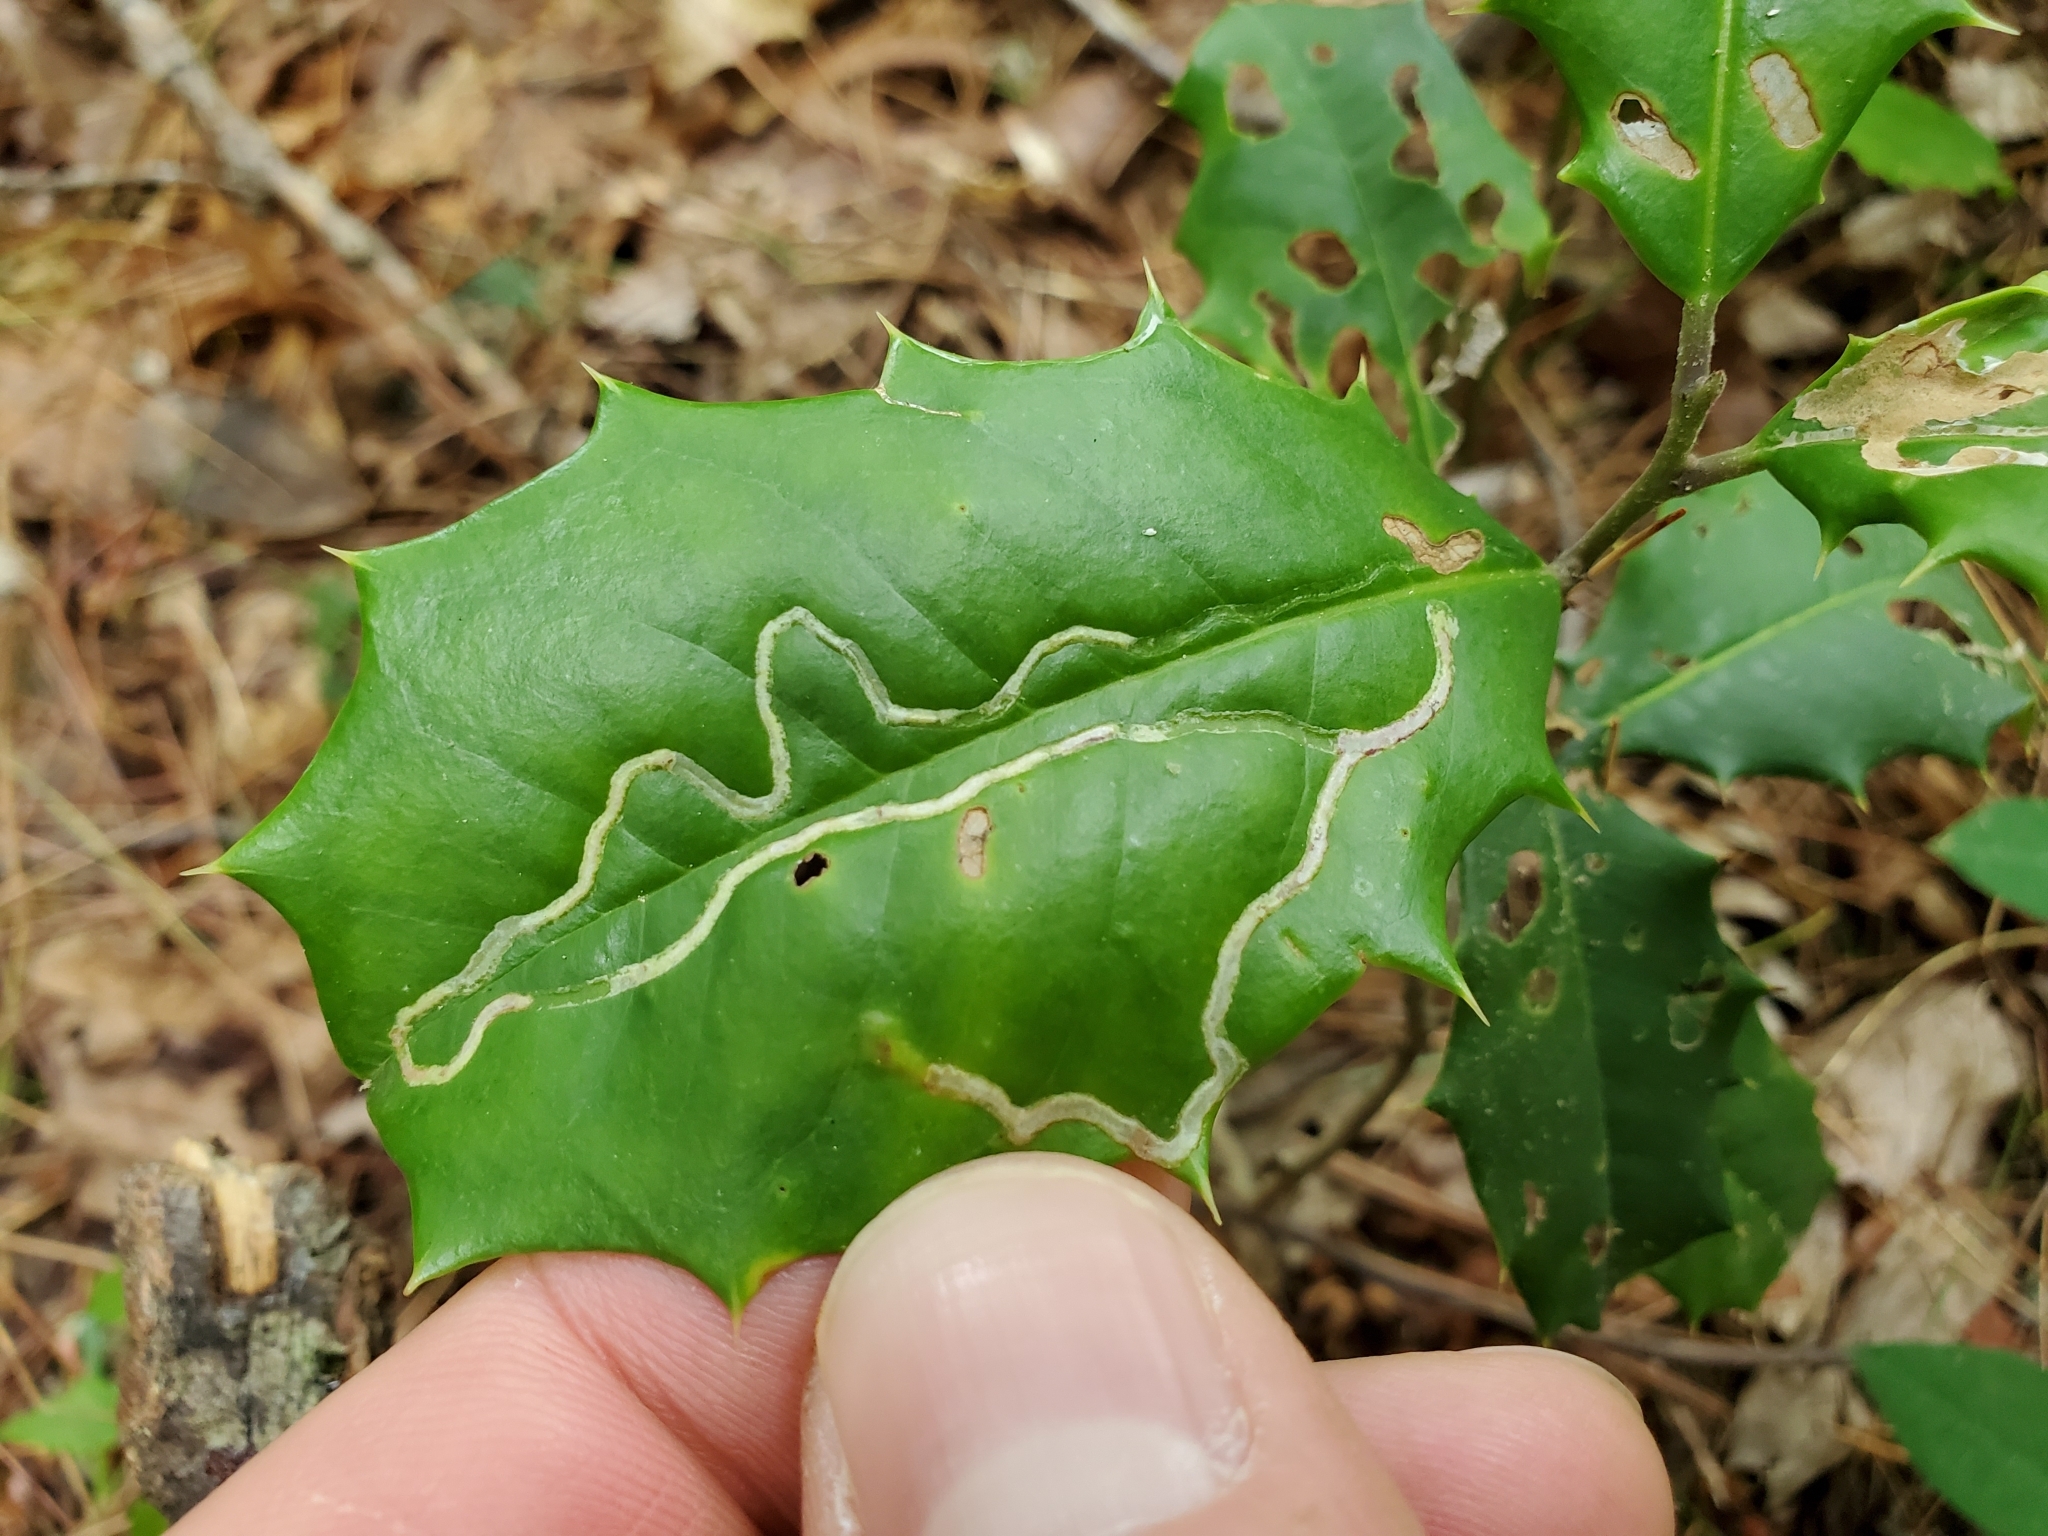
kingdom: Animalia
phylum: Arthropoda
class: Insecta
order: Diptera
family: Agromyzidae
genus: Phytomyza
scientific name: Phytomyza opacae
